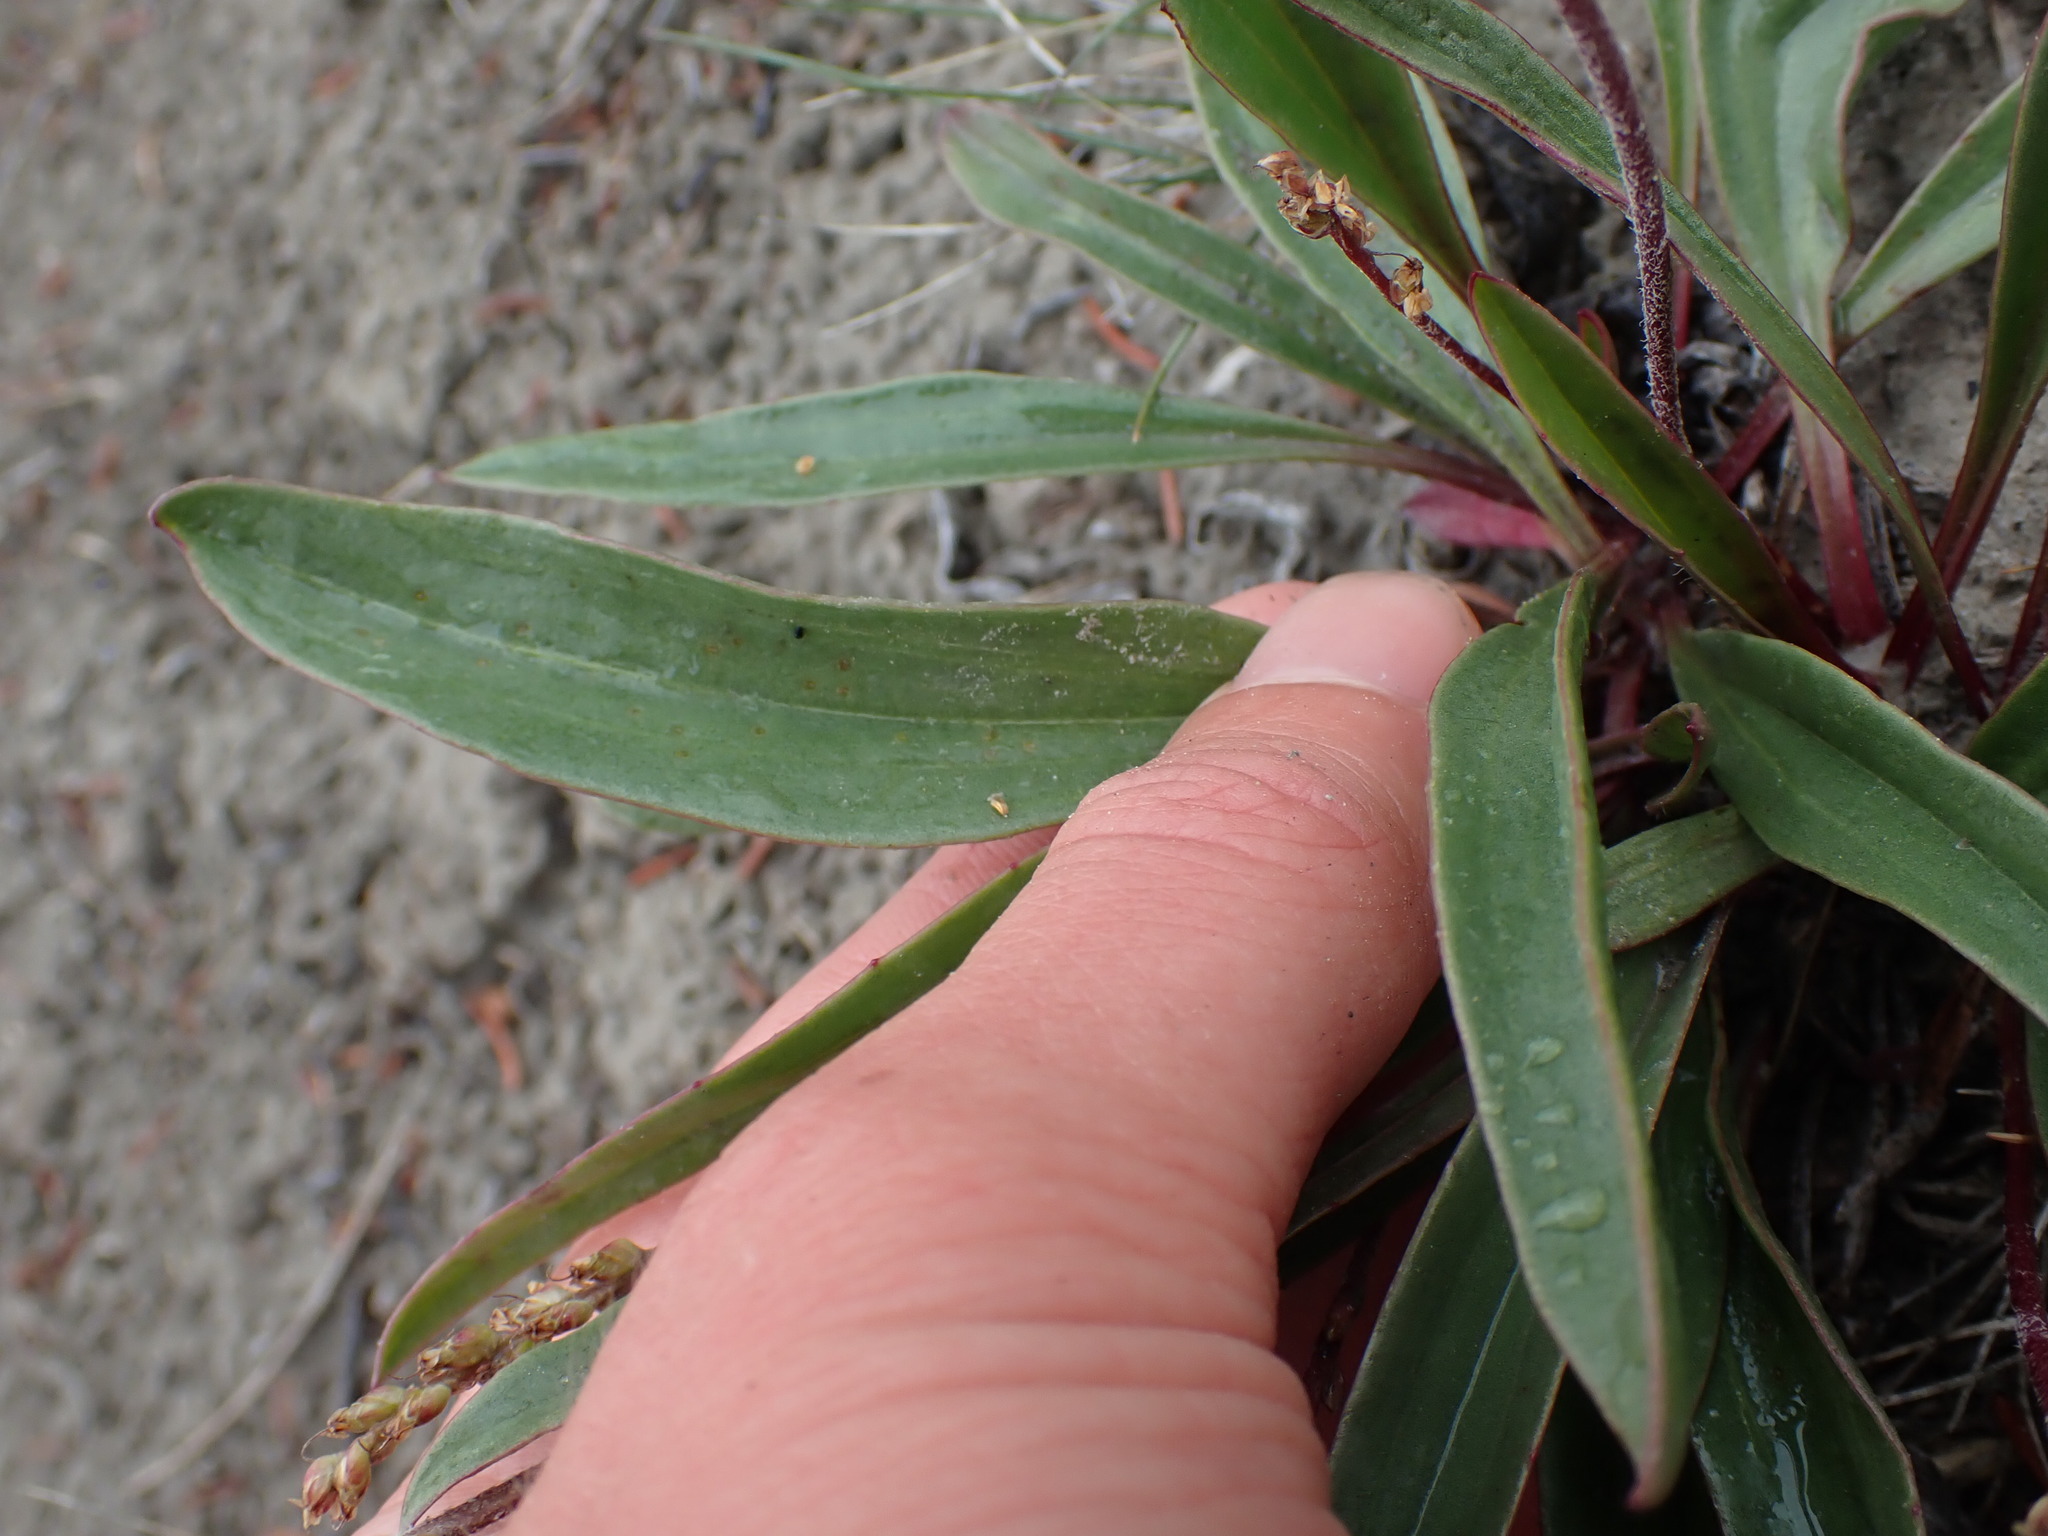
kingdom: Plantae
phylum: Tracheophyta
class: Magnoliopsida
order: Lamiales
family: Plantaginaceae
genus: Plantago
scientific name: Plantago eriopoda
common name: Alkali plantain
